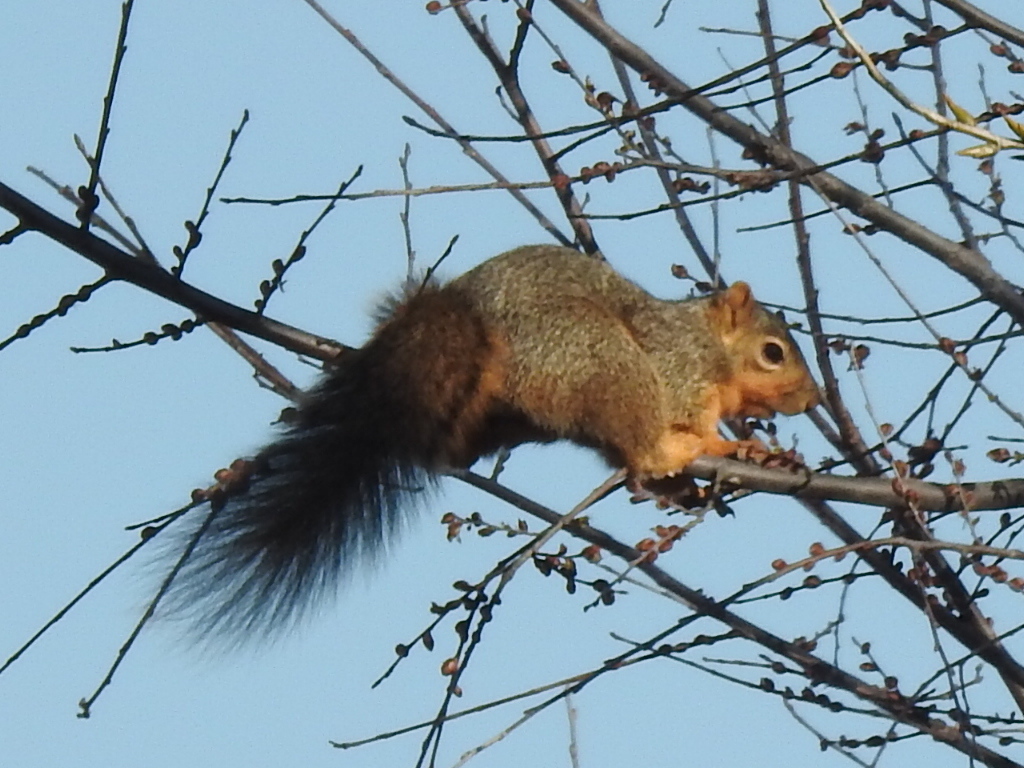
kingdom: Animalia
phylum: Chordata
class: Mammalia
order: Rodentia
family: Sciuridae
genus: Sciurus
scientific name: Sciurus niger
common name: Fox squirrel
